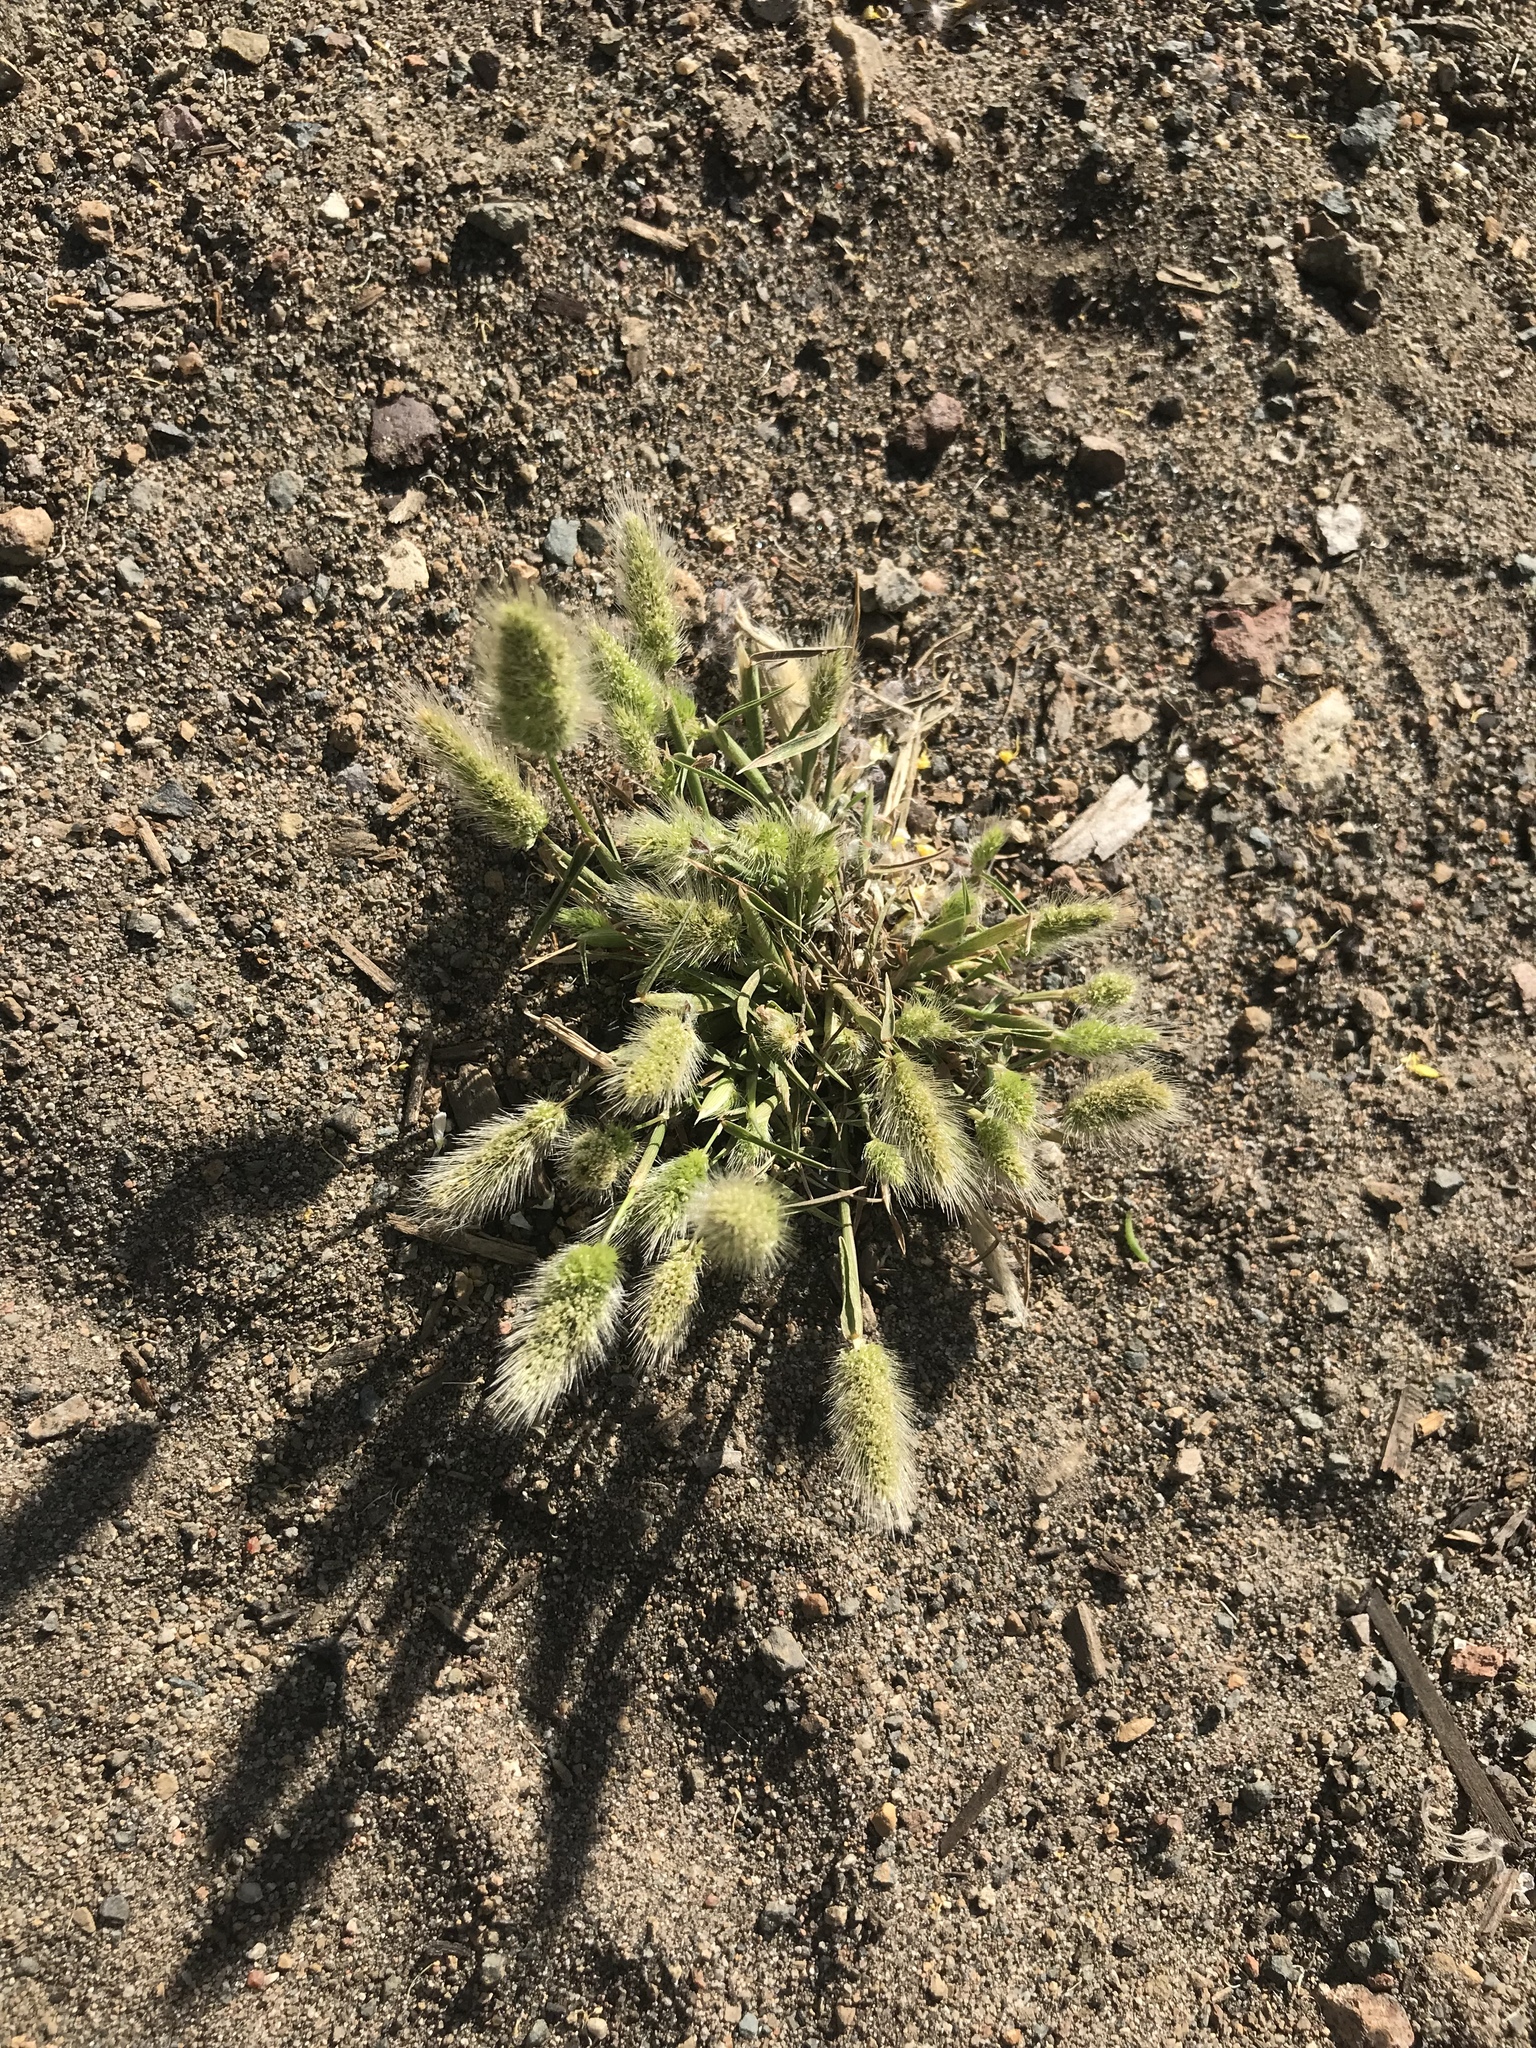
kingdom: Plantae
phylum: Tracheophyta
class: Liliopsida
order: Poales
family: Poaceae
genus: Polypogon
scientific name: Polypogon monspeliensis
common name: Annual rabbitsfoot grass
